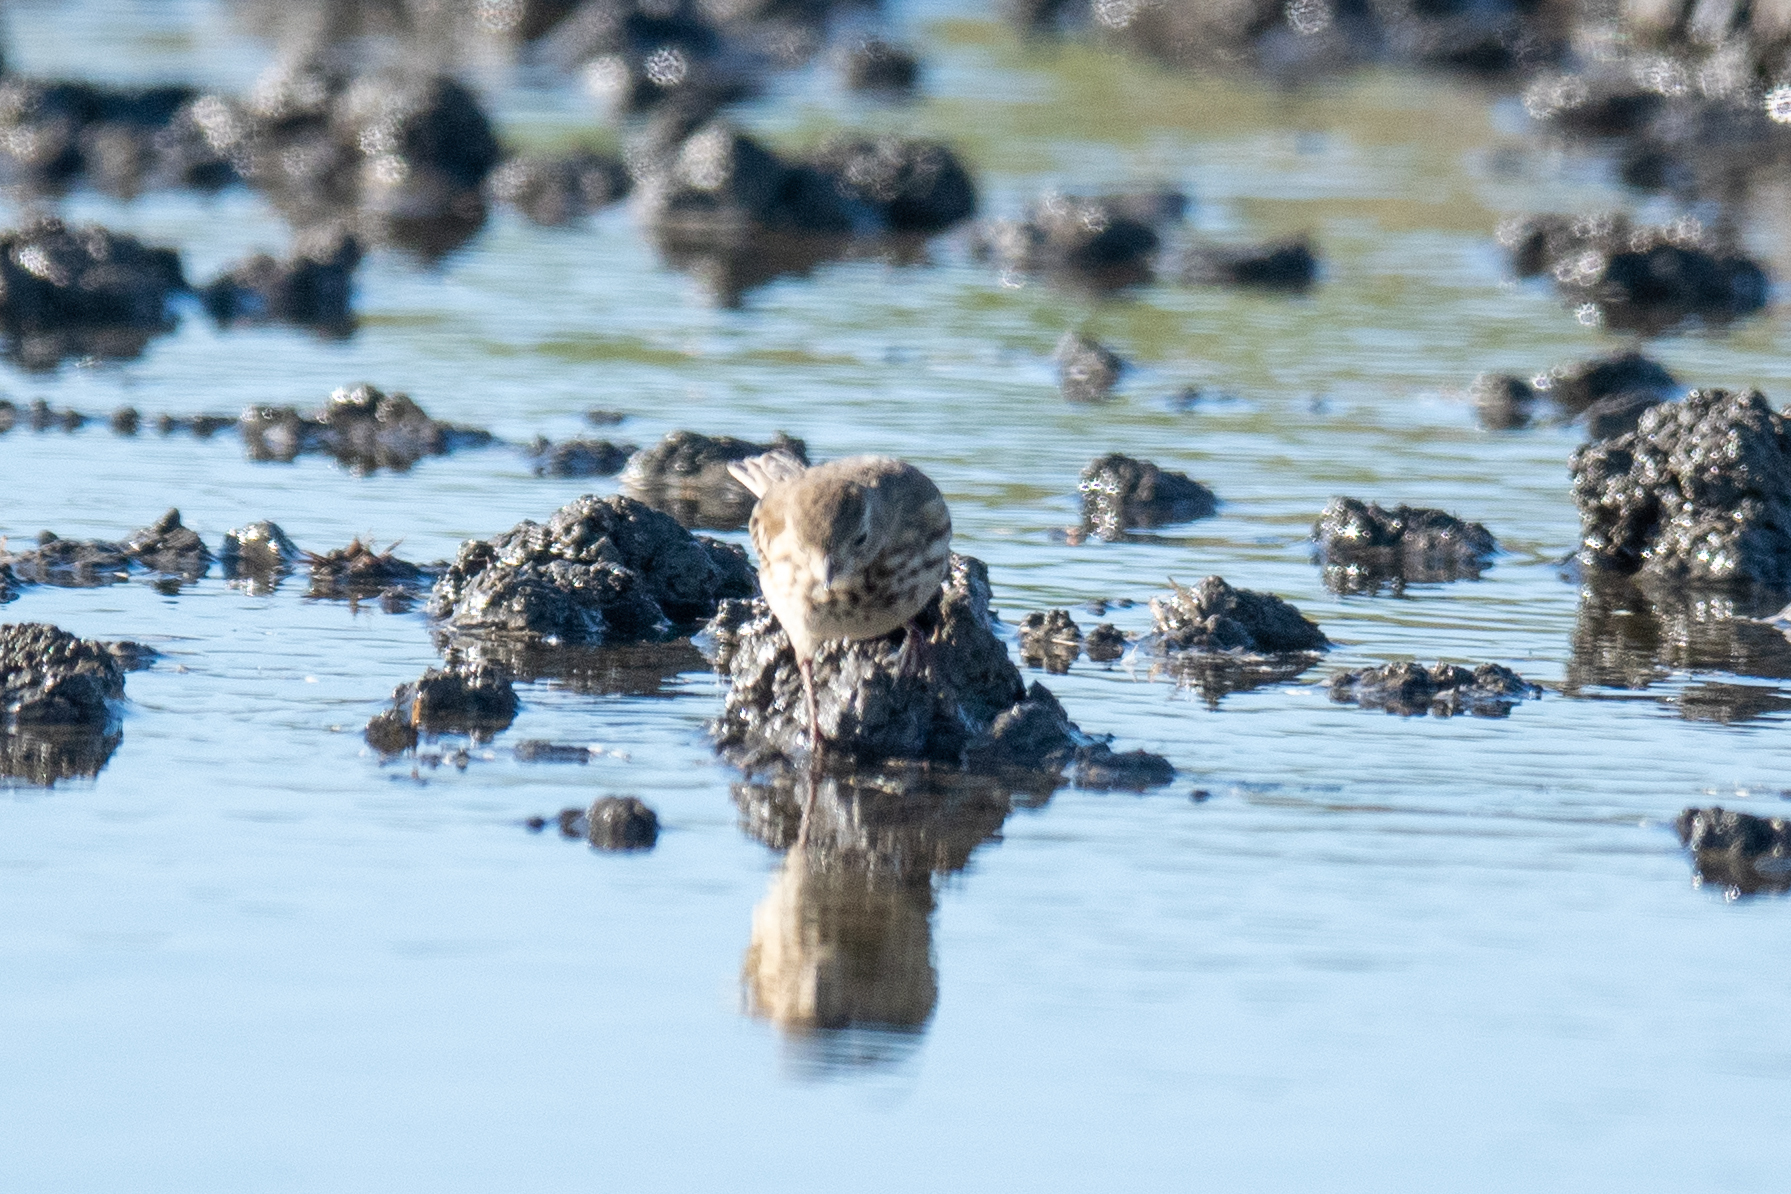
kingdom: Animalia
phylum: Chordata
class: Aves
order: Passeriformes
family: Motacillidae
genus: Anthus
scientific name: Anthus rubescens
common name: Buff-bellied pipit
